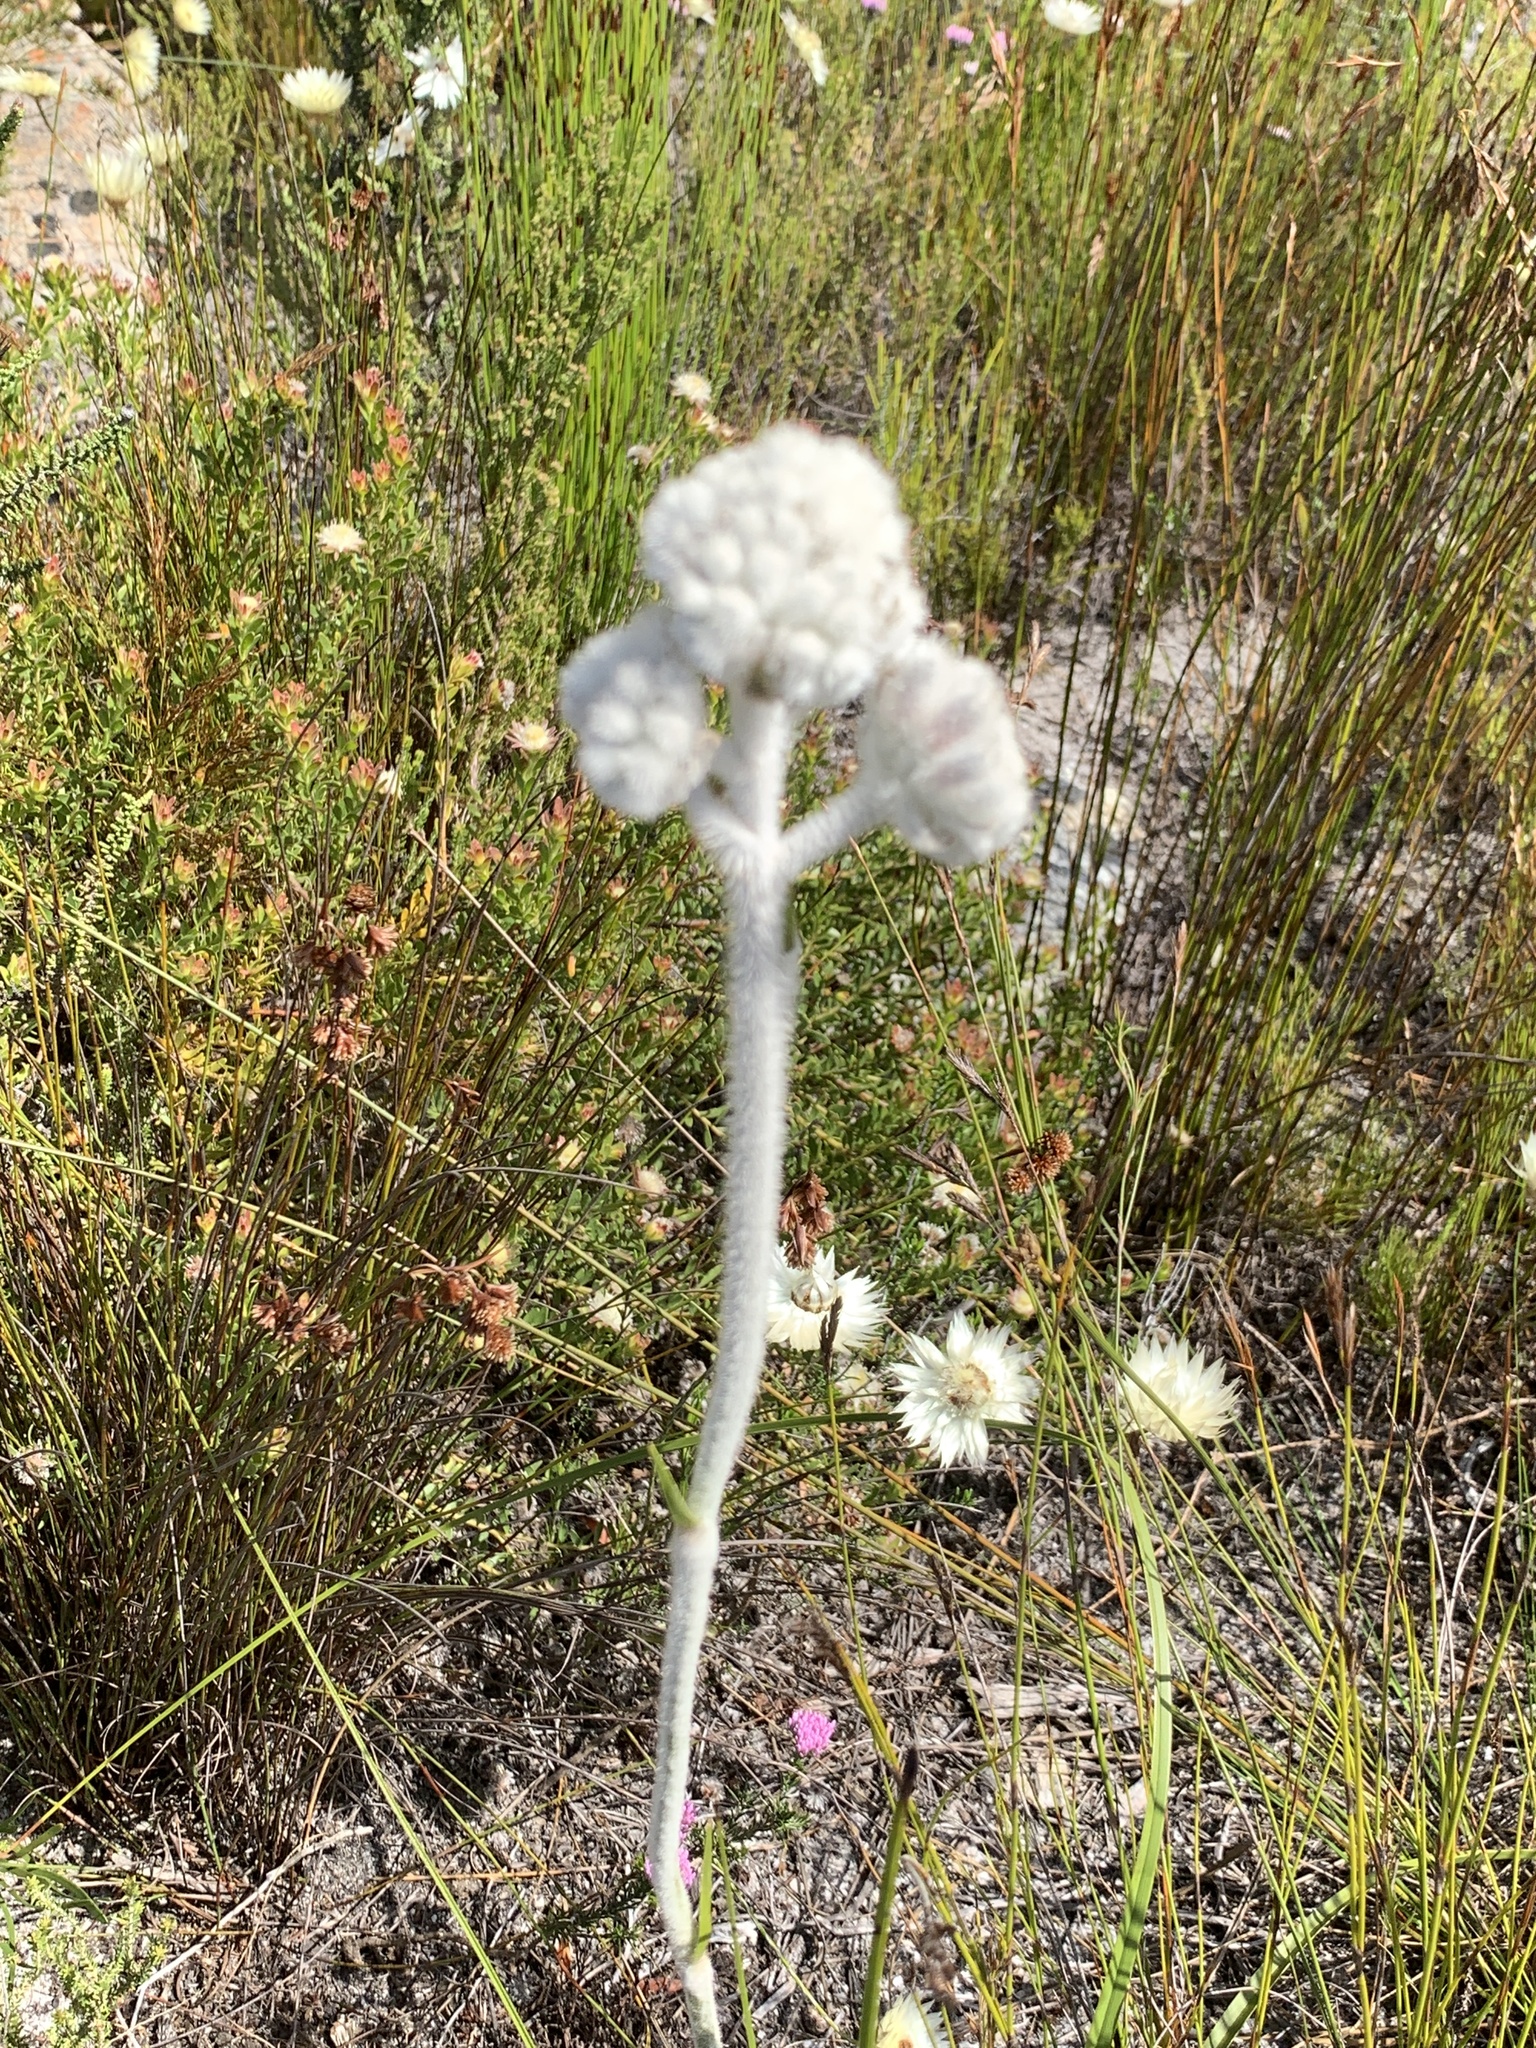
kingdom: Plantae
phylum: Tracheophyta
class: Liliopsida
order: Asparagales
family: Lanariaceae
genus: Lanaria
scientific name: Lanaria lanata
